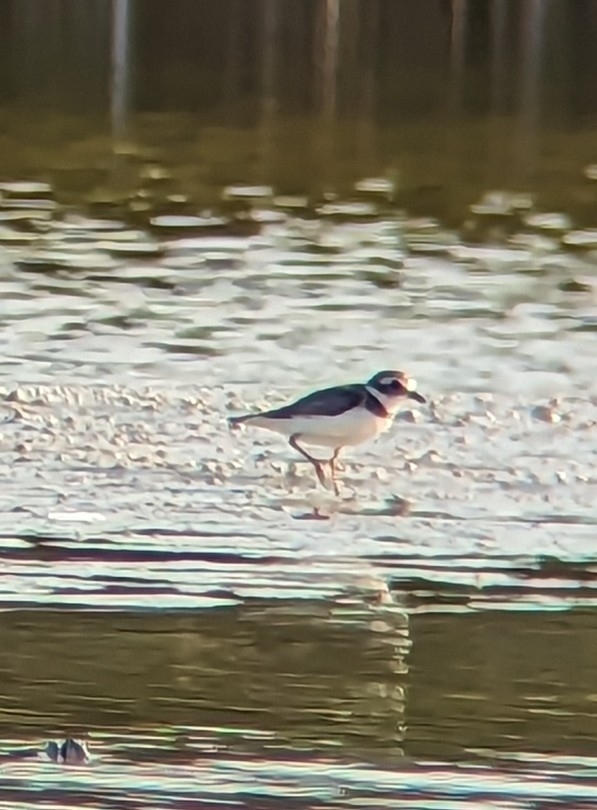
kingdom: Animalia
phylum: Chordata
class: Aves
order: Charadriiformes
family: Charadriidae
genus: Charadrius
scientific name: Charadrius semipalmatus
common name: Semipalmated plover
